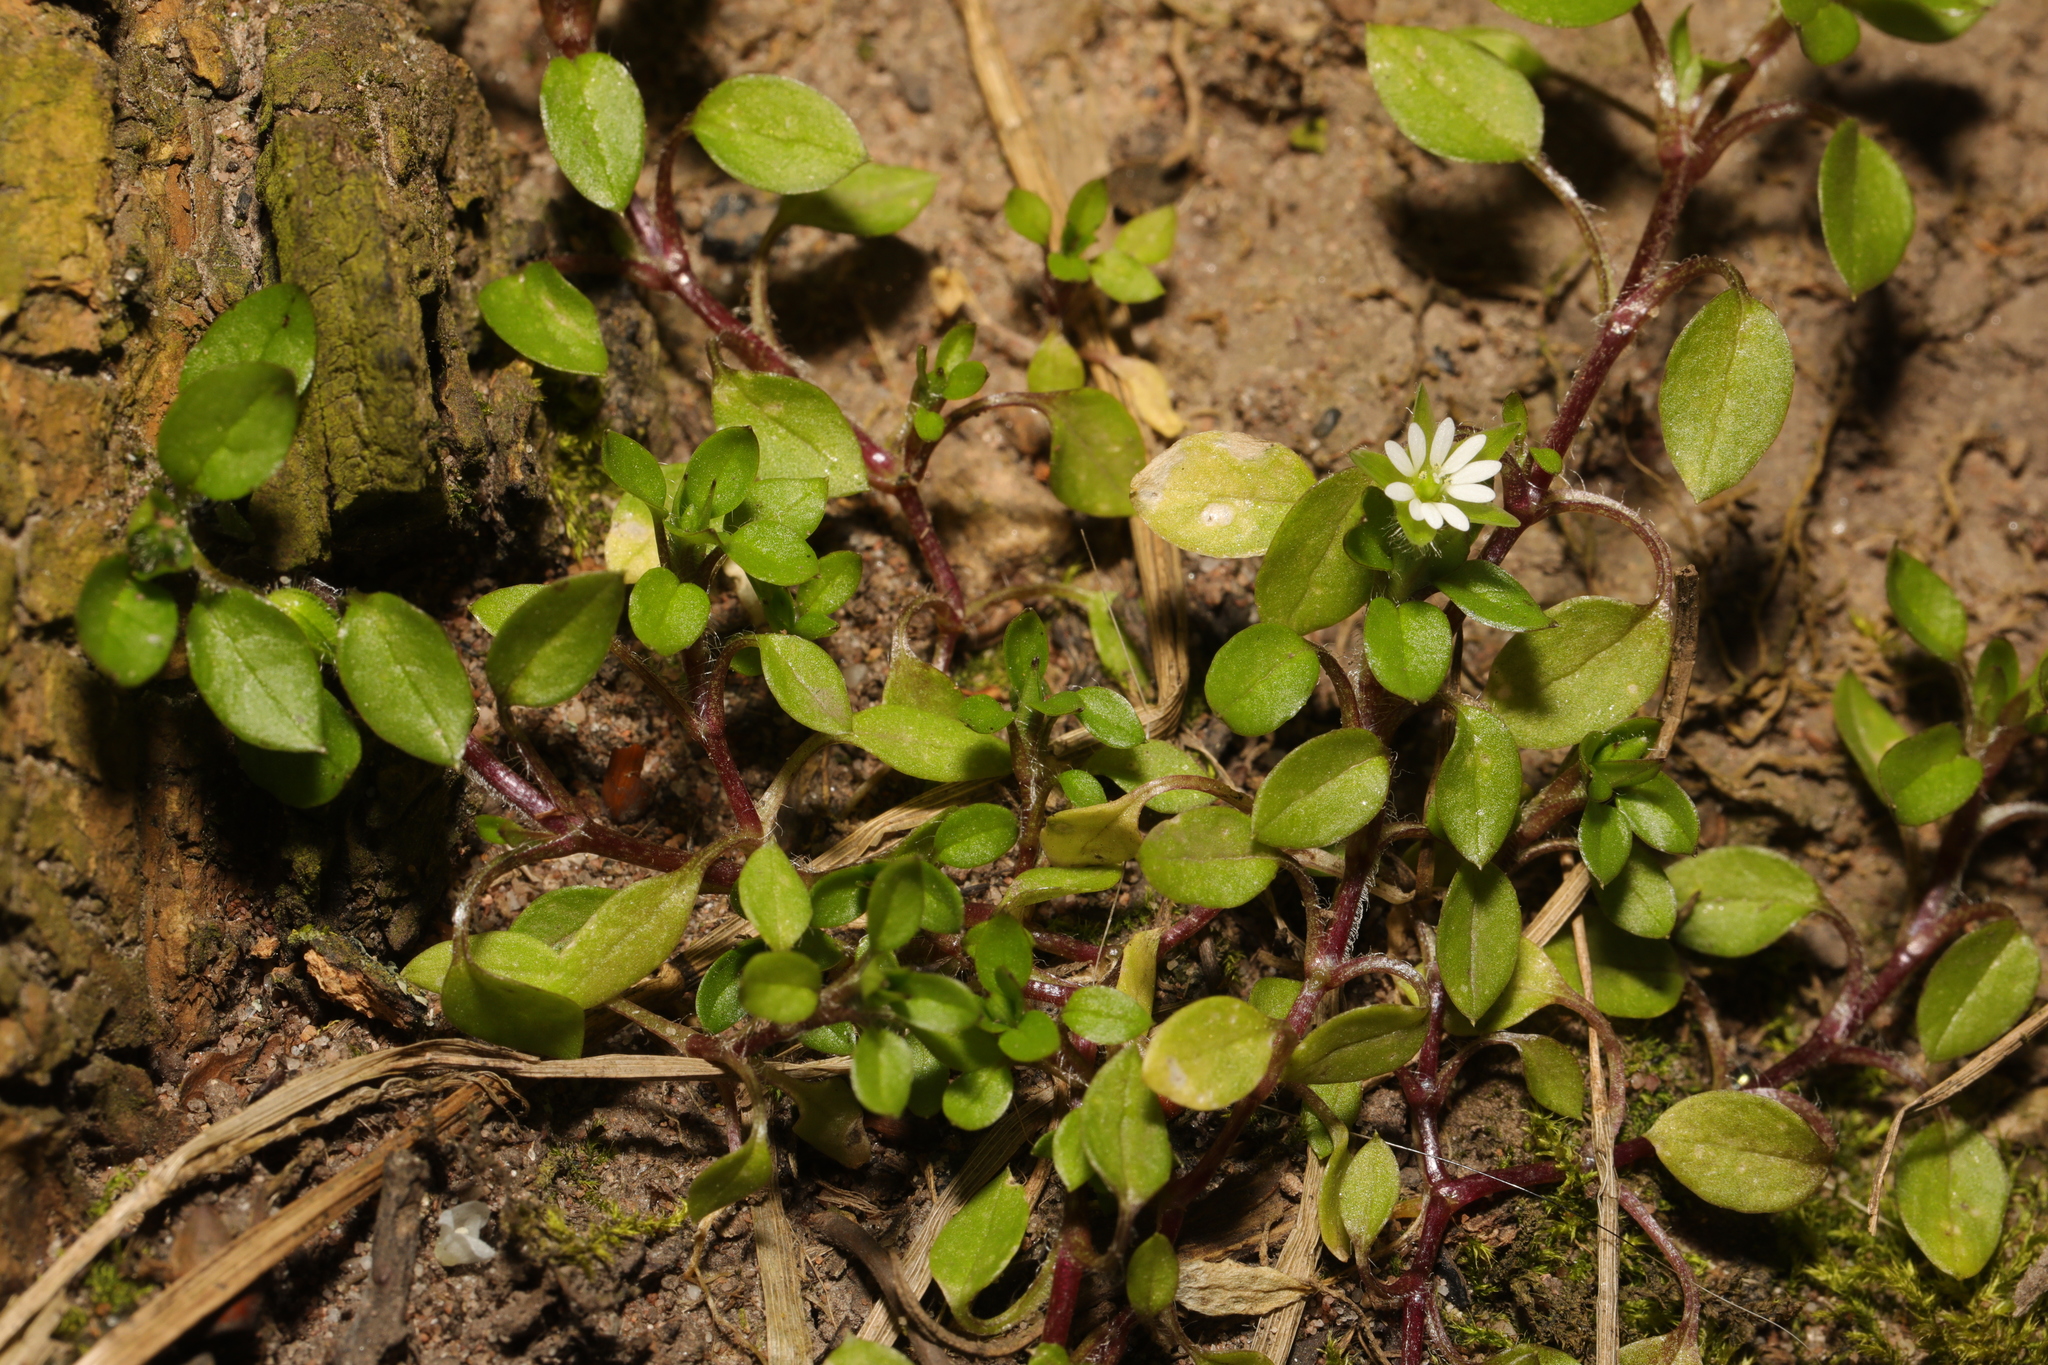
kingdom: Plantae
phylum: Tracheophyta
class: Magnoliopsida
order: Caryophyllales
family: Caryophyllaceae
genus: Stellaria
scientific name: Stellaria media
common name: Common chickweed
